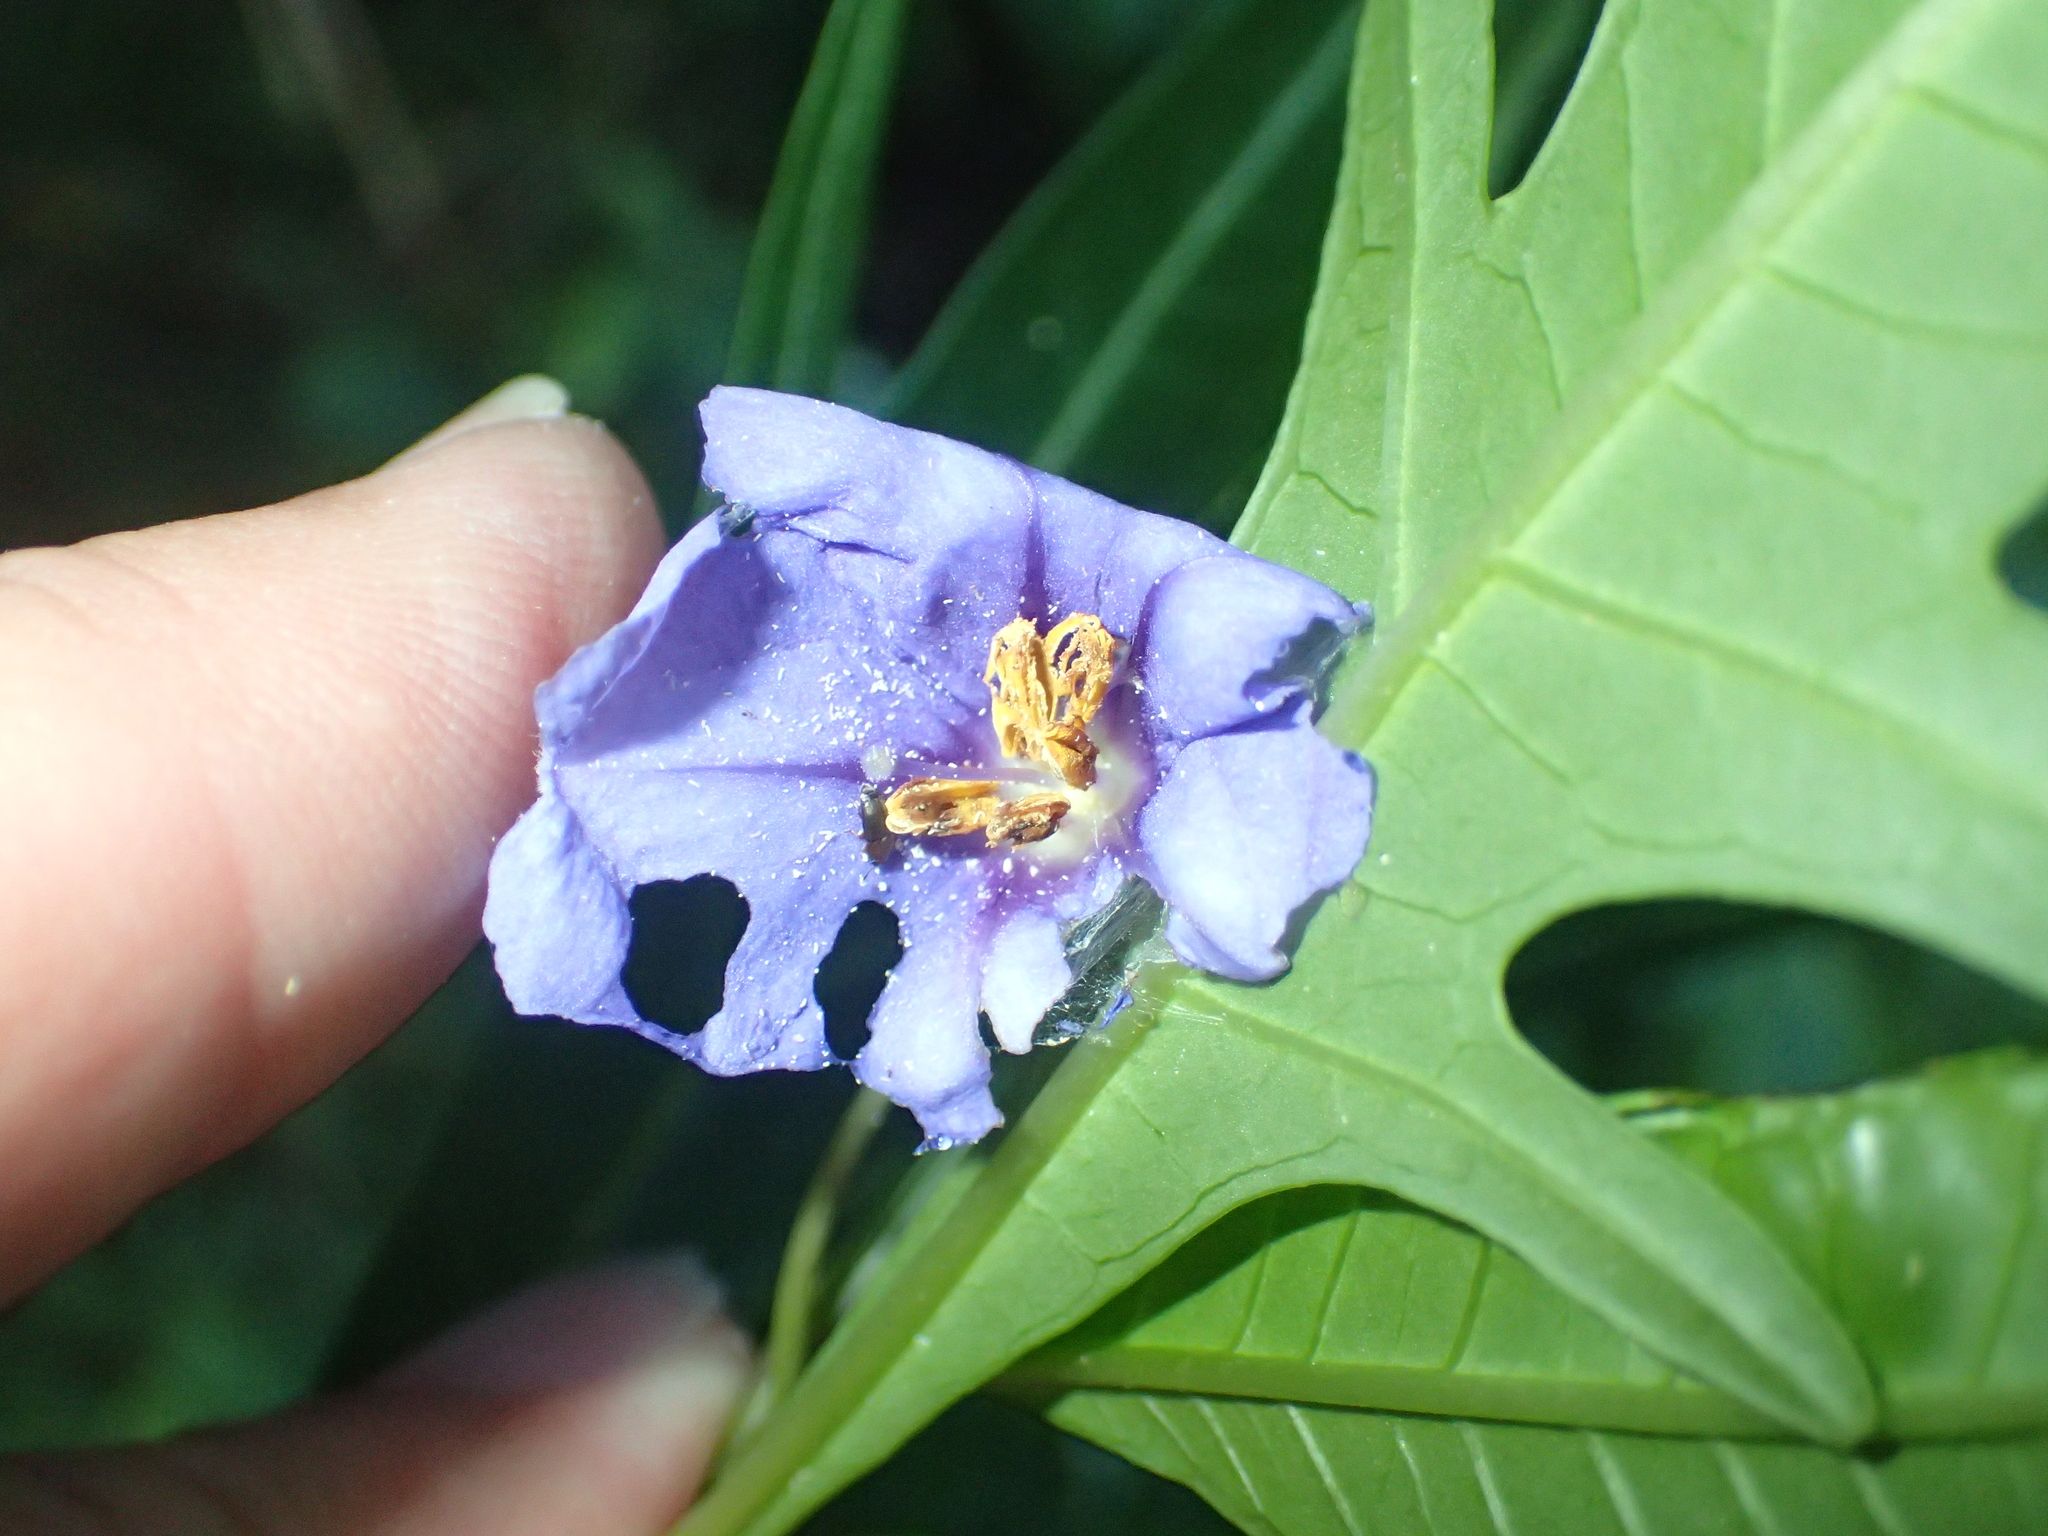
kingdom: Plantae
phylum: Tracheophyta
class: Magnoliopsida
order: Solanales
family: Solanaceae
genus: Solanum
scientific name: Solanum laciniatum
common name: Kangaroo-apple
